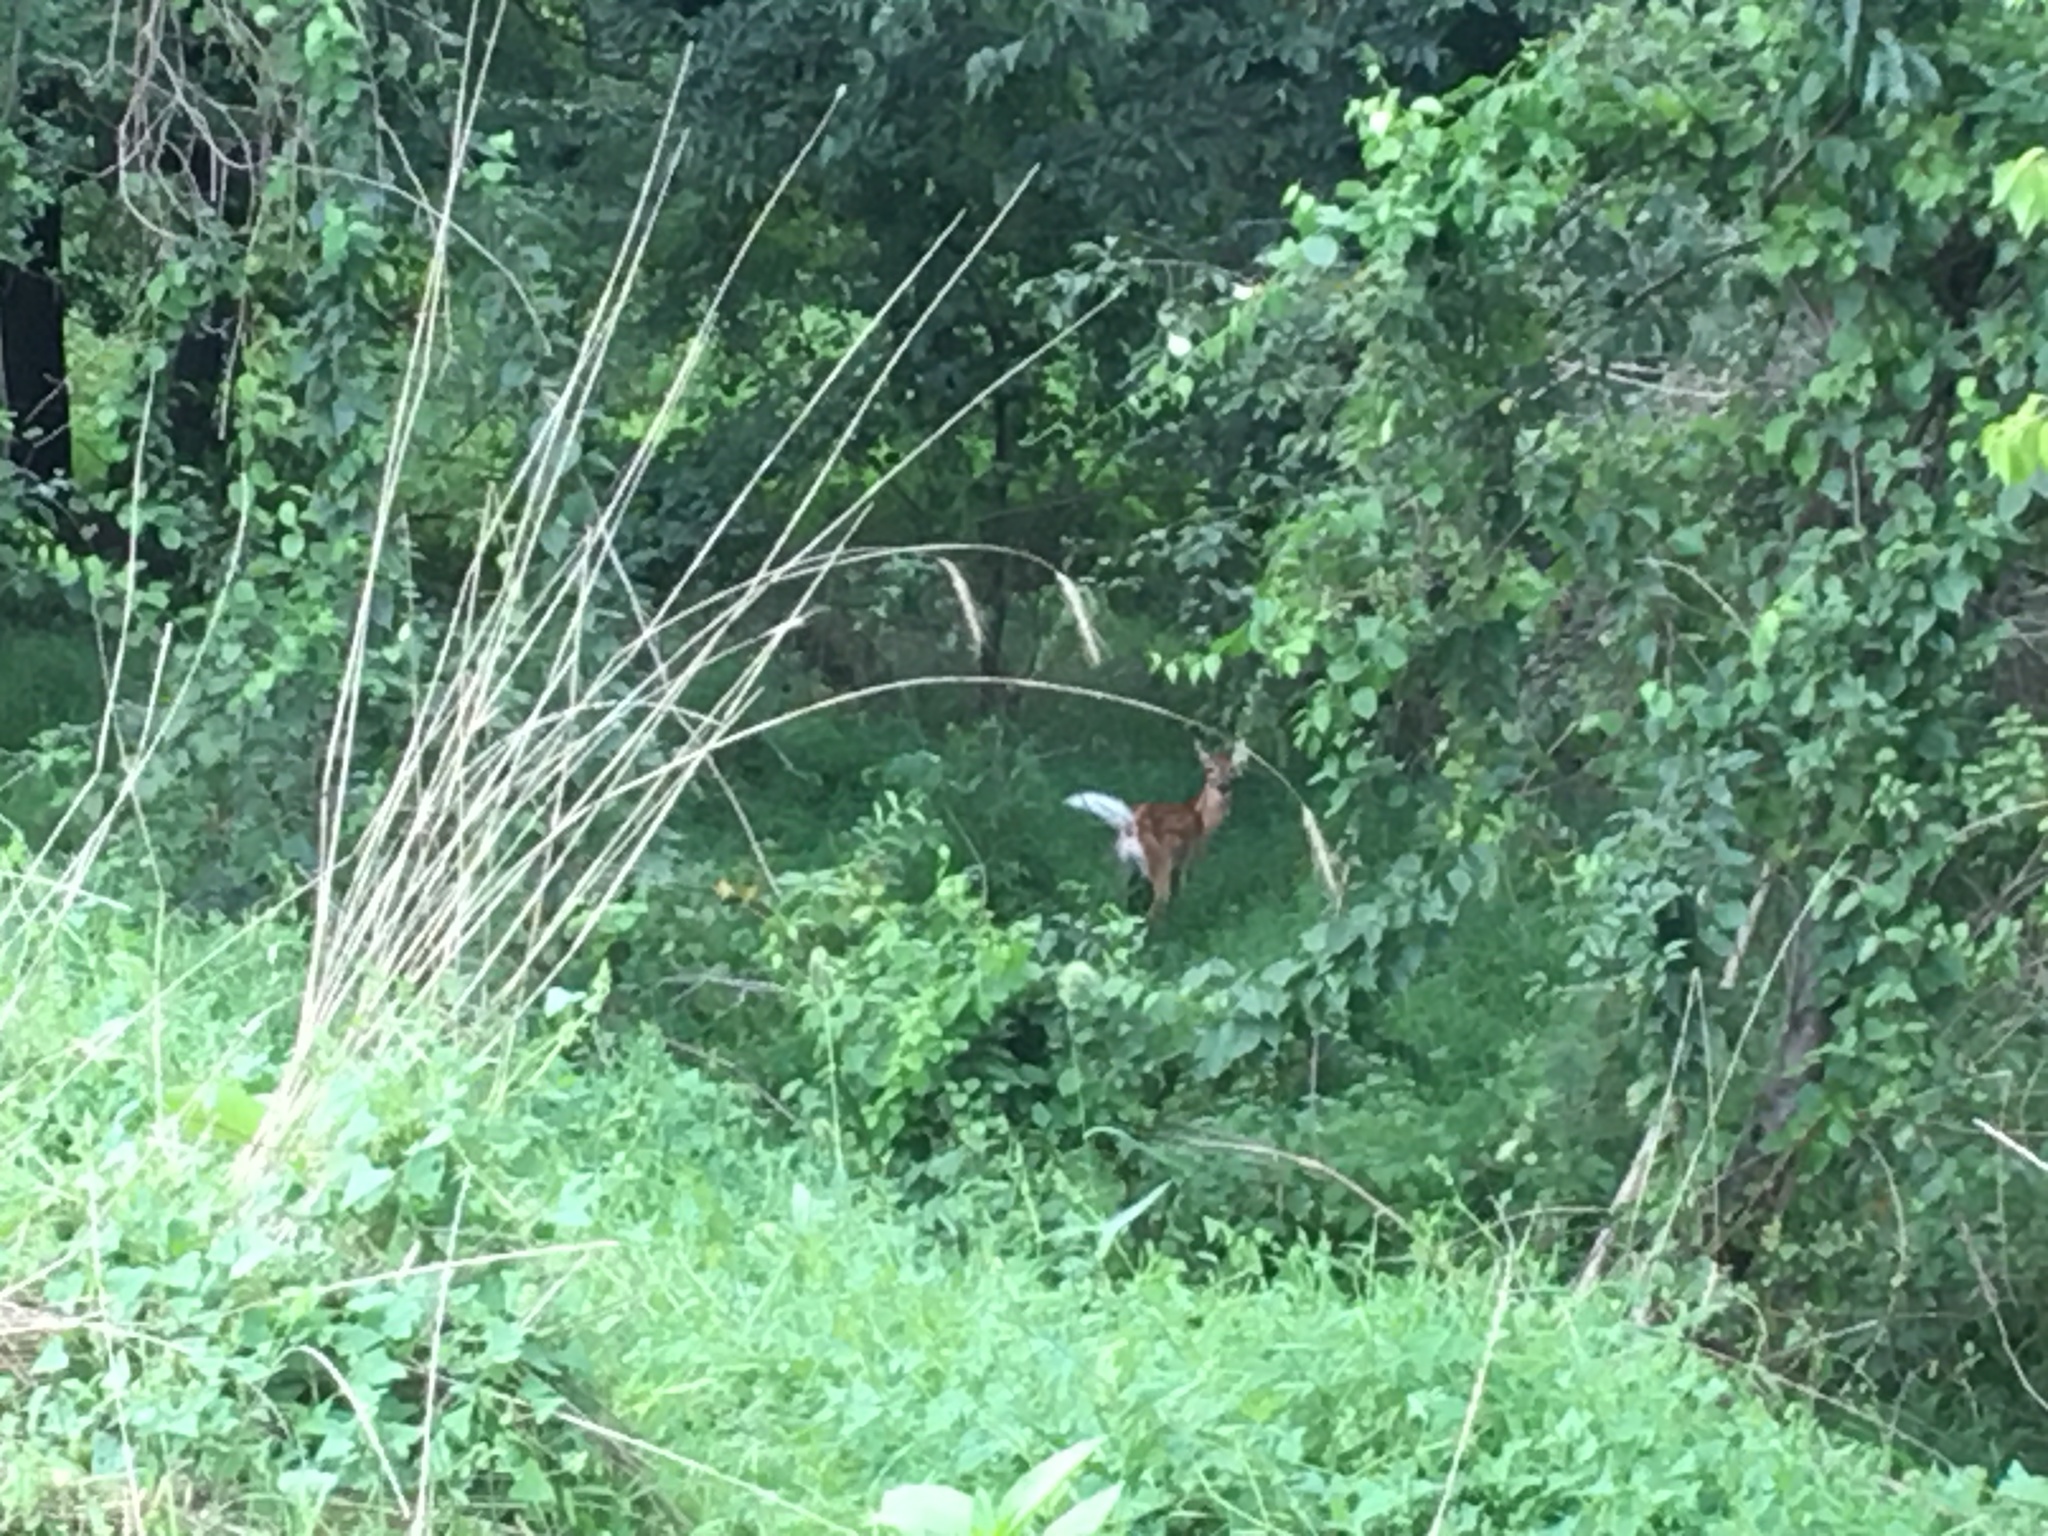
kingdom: Animalia
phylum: Chordata
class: Mammalia
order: Artiodactyla
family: Cervidae
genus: Odocoileus
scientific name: Odocoileus virginianus
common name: White-tailed deer
